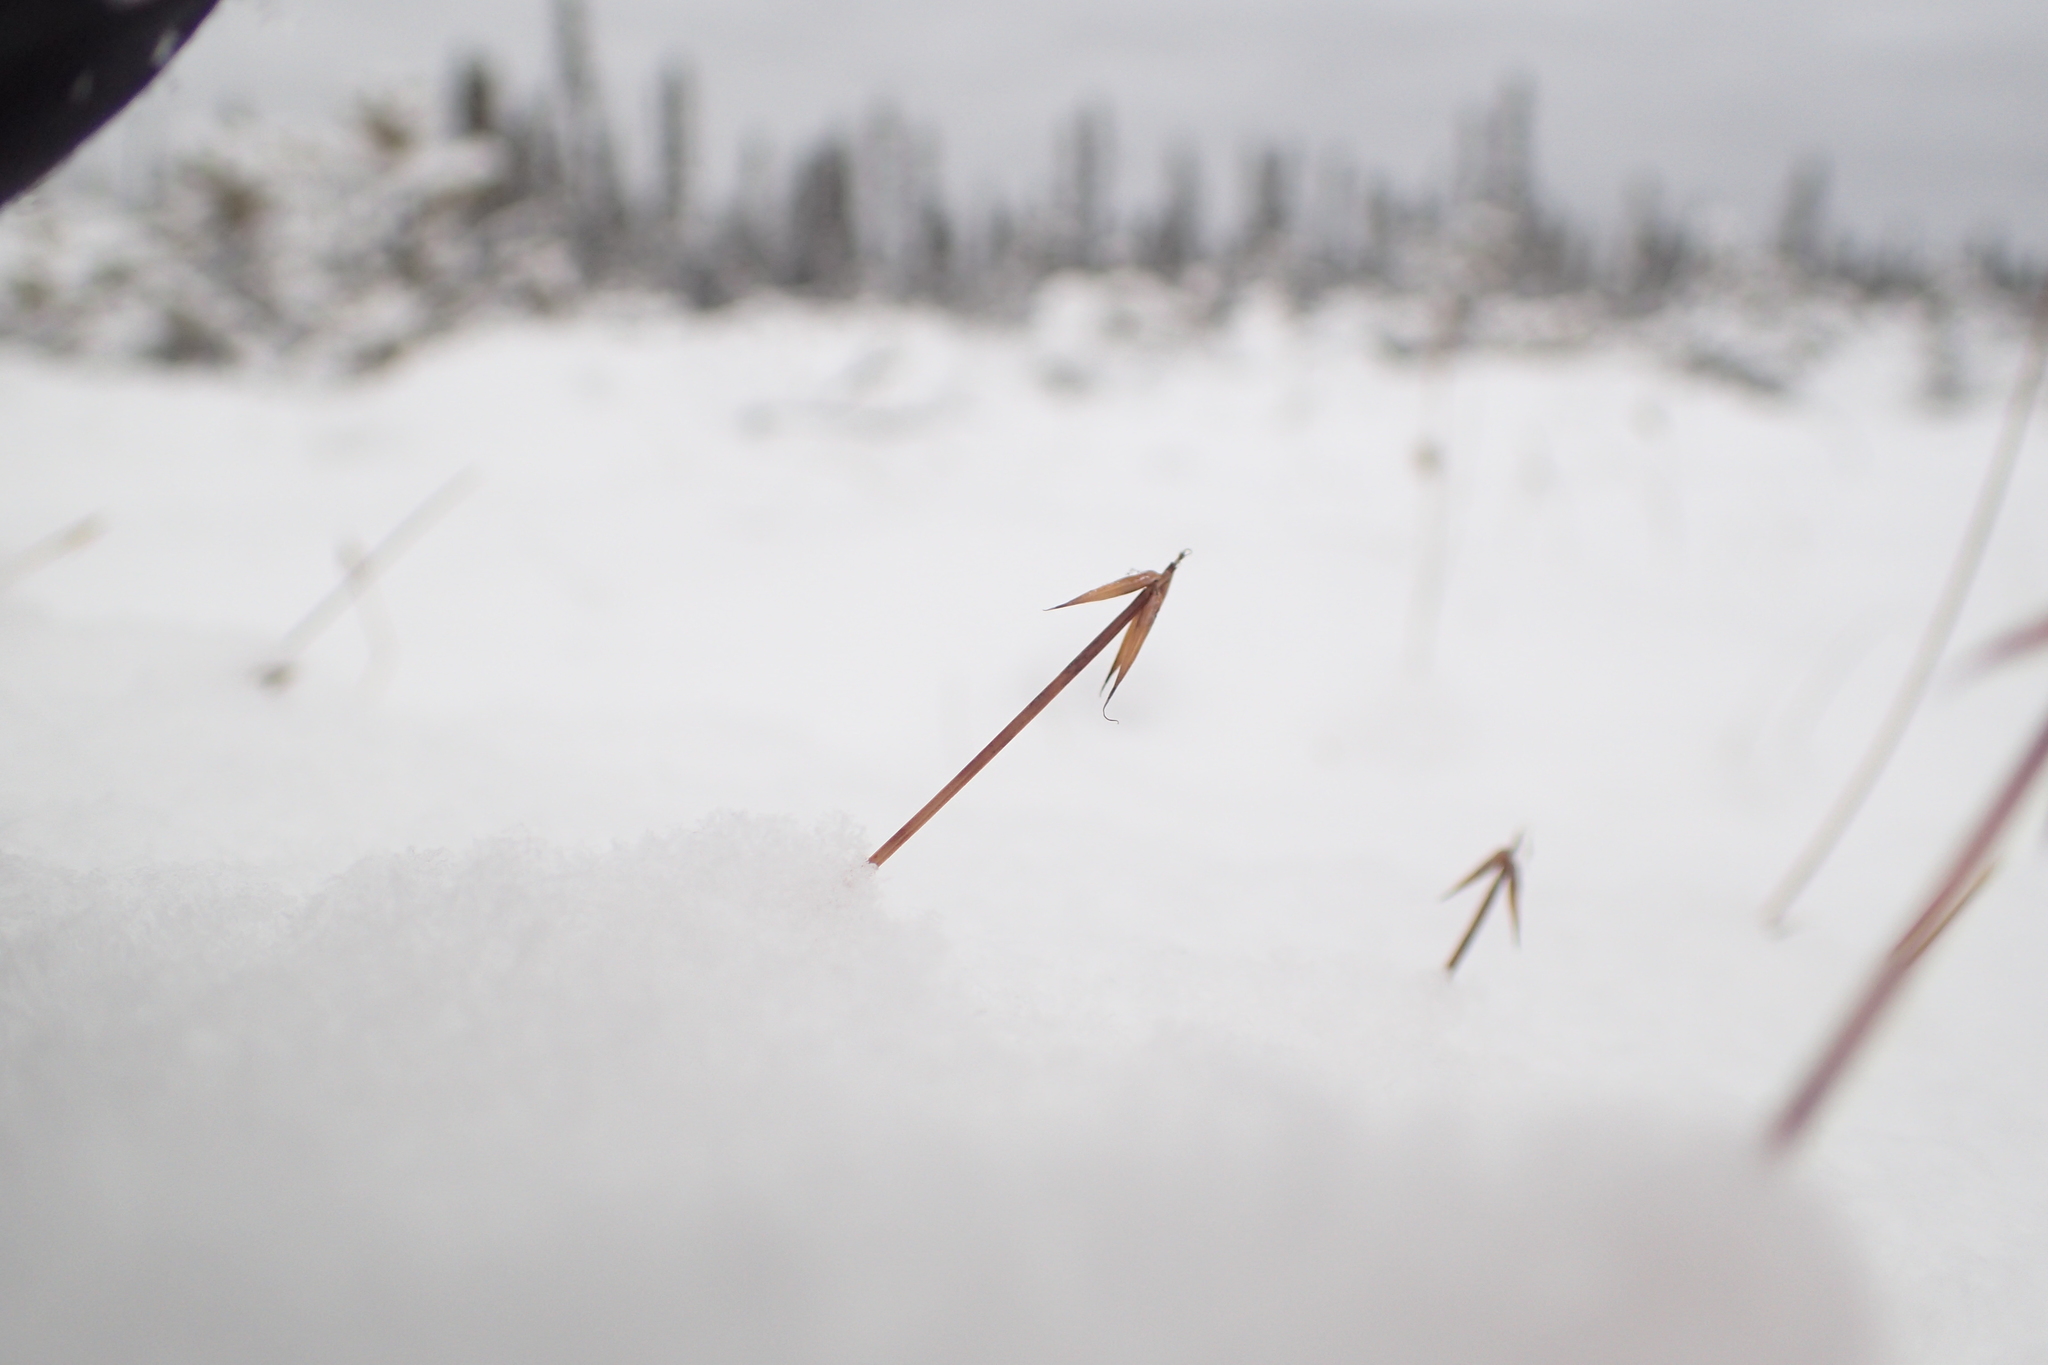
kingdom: Plantae
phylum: Tracheophyta
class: Liliopsida
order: Poales
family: Cyperaceae
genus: Carex
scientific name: Carex pauciflora
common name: Few-flowered sedge
